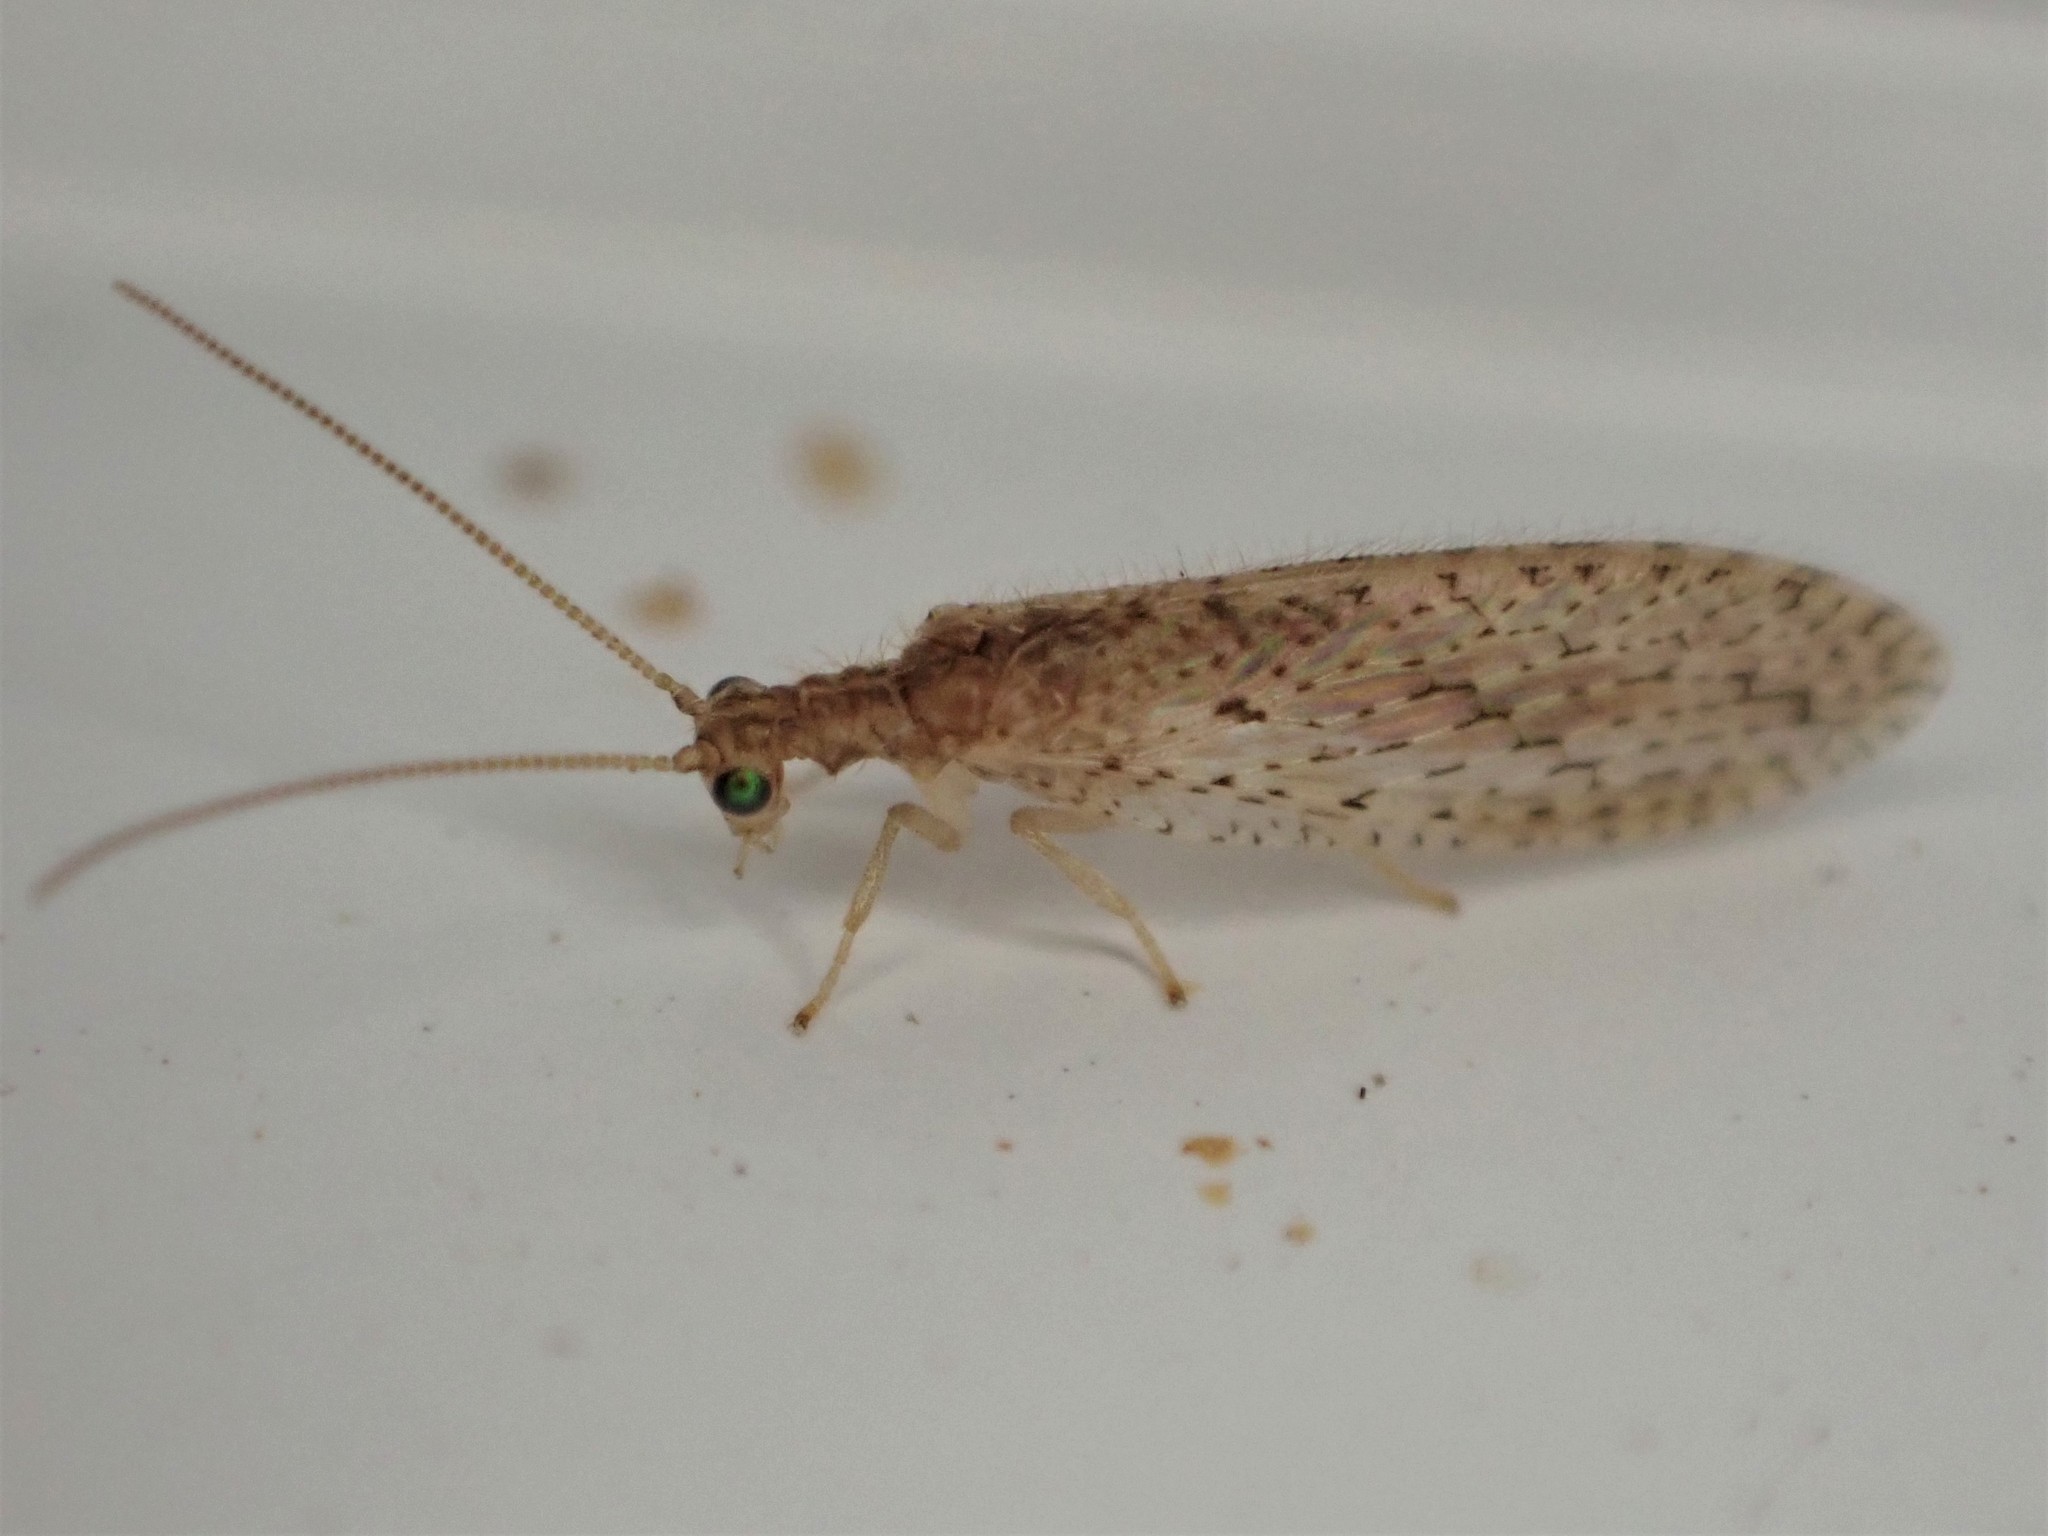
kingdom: Animalia
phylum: Arthropoda
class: Insecta
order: Neuroptera
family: Hemerobiidae
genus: Micromus
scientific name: Micromus tasmaniae
